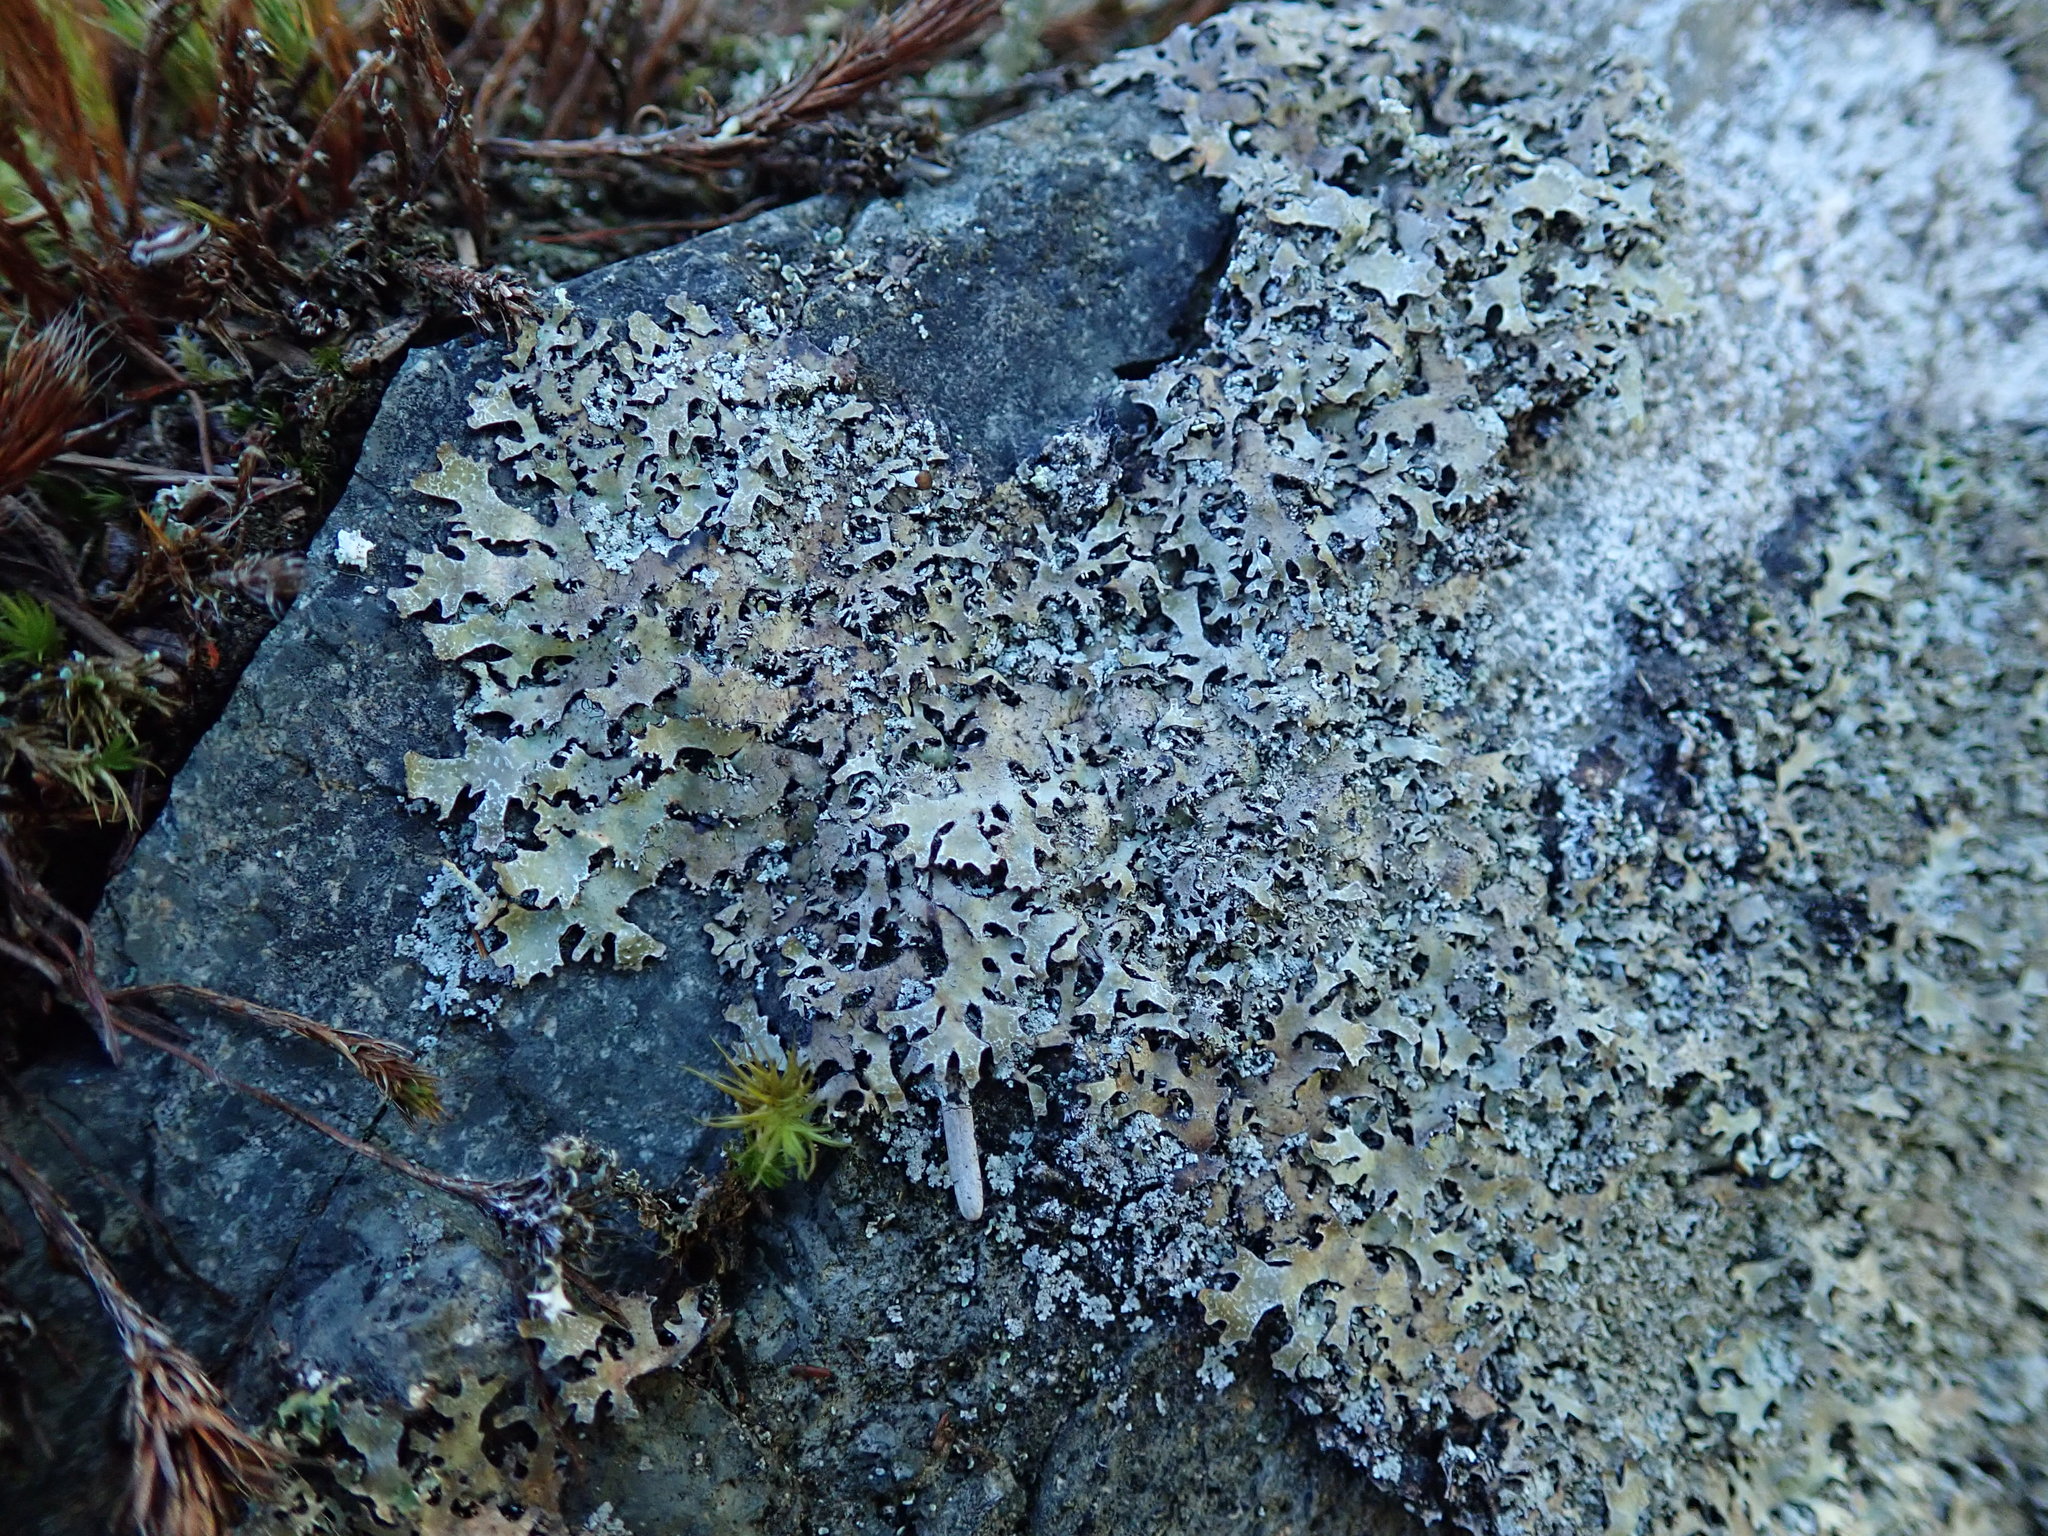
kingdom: Fungi
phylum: Ascomycota
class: Lecanoromycetes
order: Lecanorales
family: Parmeliaceae
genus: Parmelia
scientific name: Parmelia saxatilis
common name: Salted shield lichen
